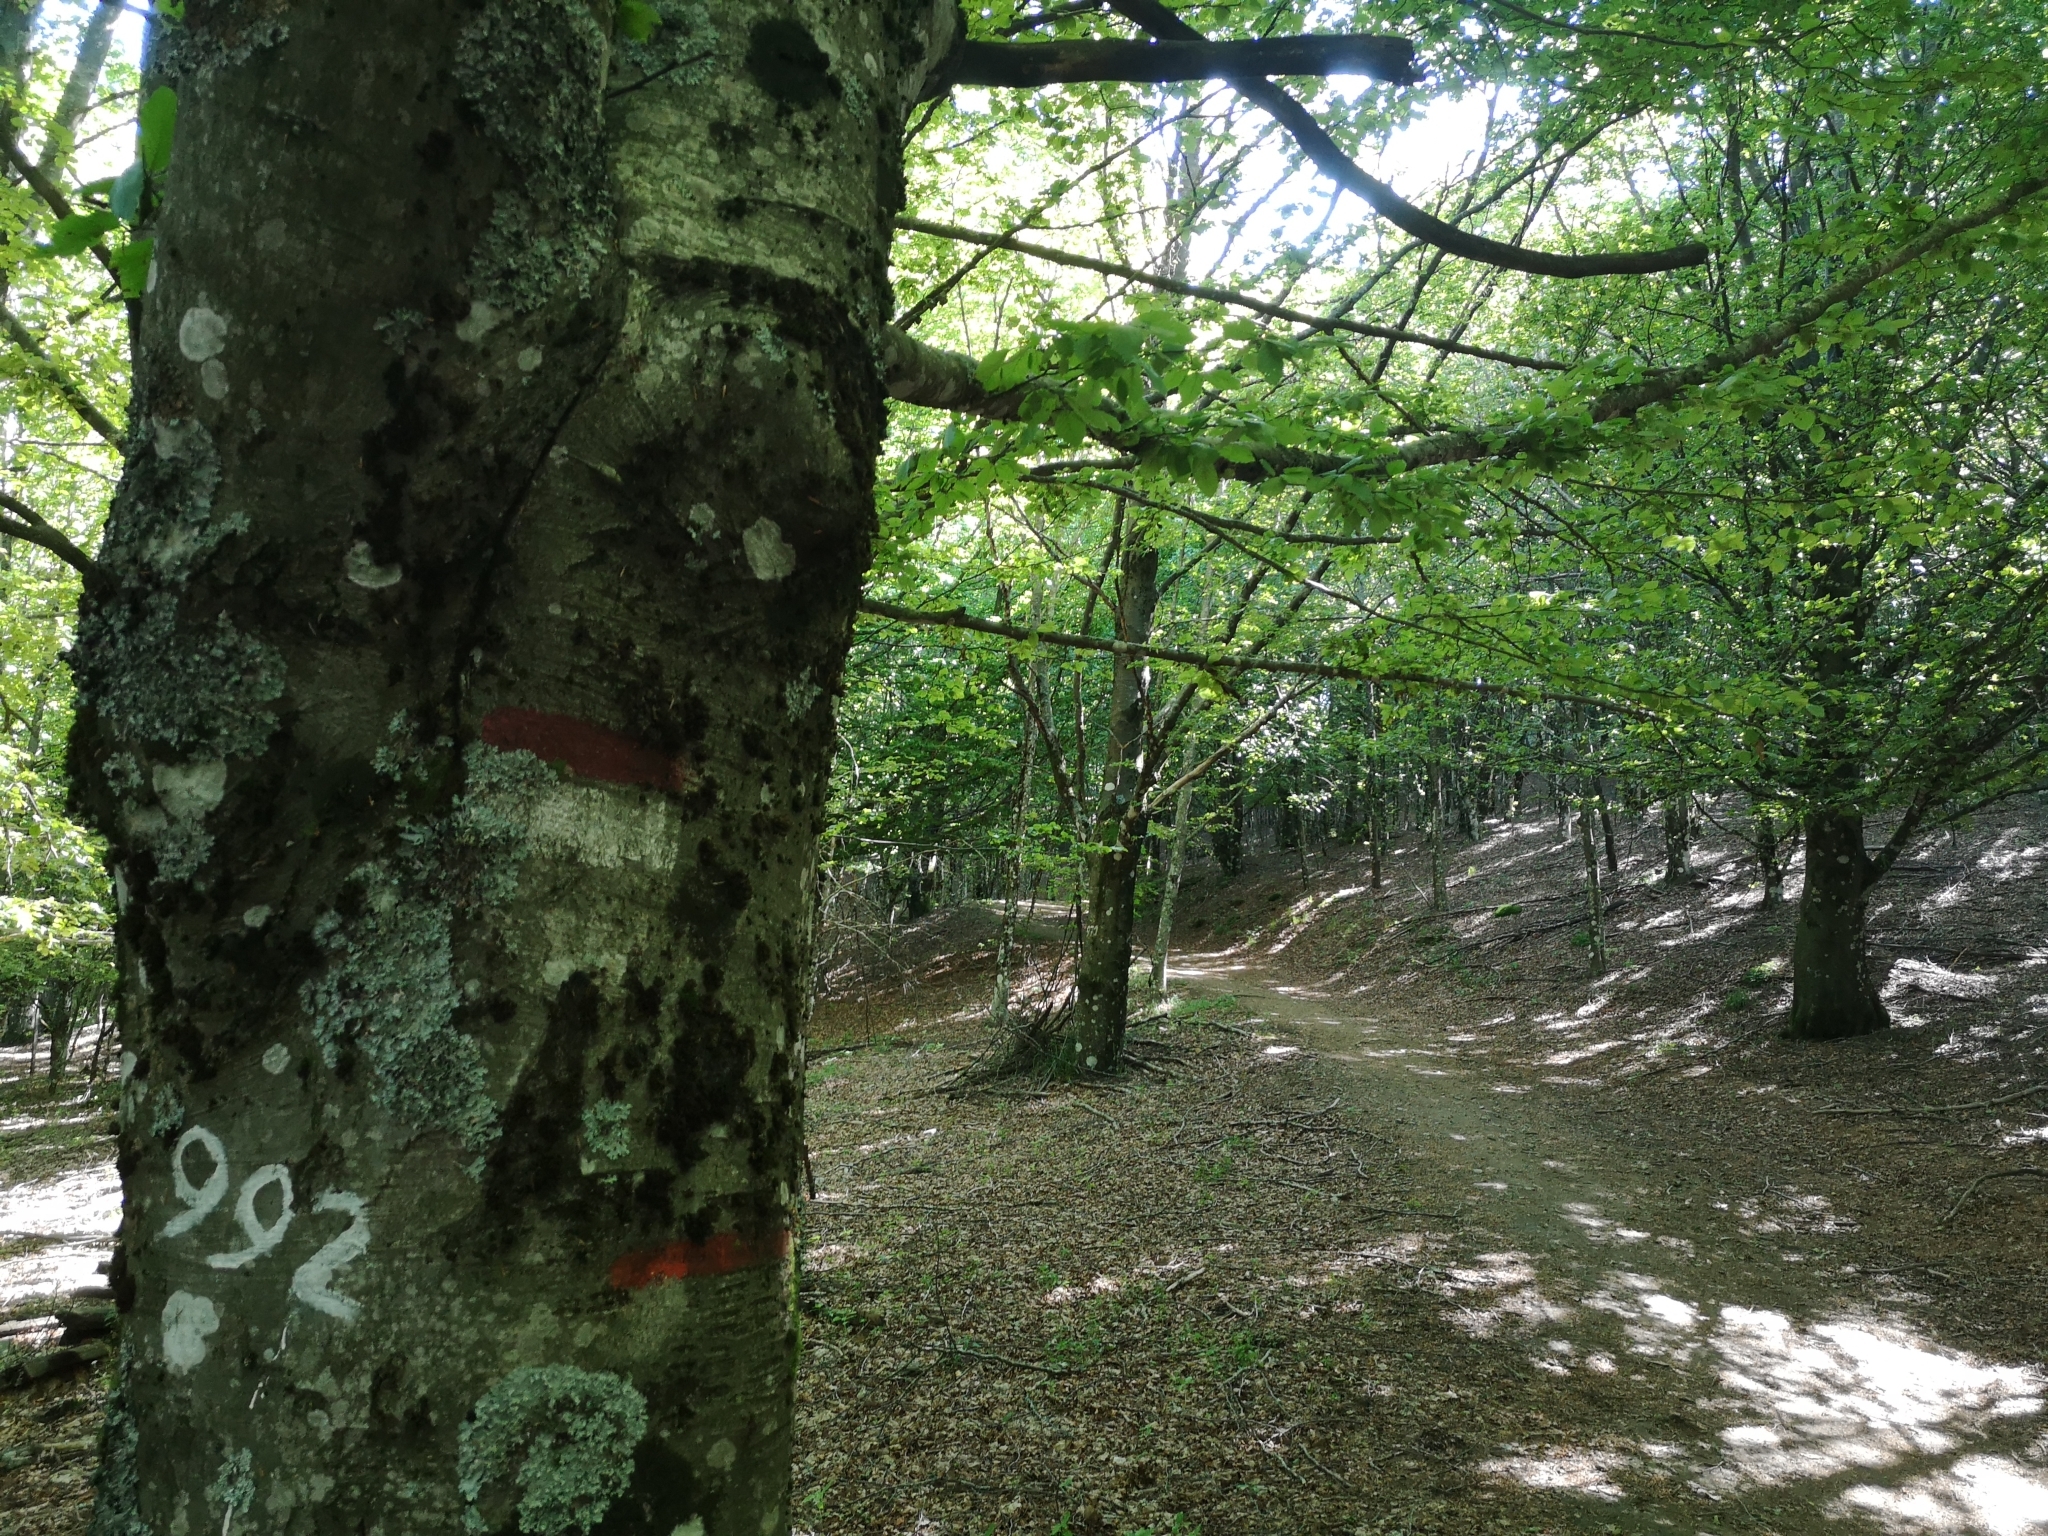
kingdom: Plantae
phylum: Tracheophyta
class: Magnoliopsida
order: Fagales
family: Fagaceae
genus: Fagus
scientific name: Fagus sylvatica
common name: Beech
